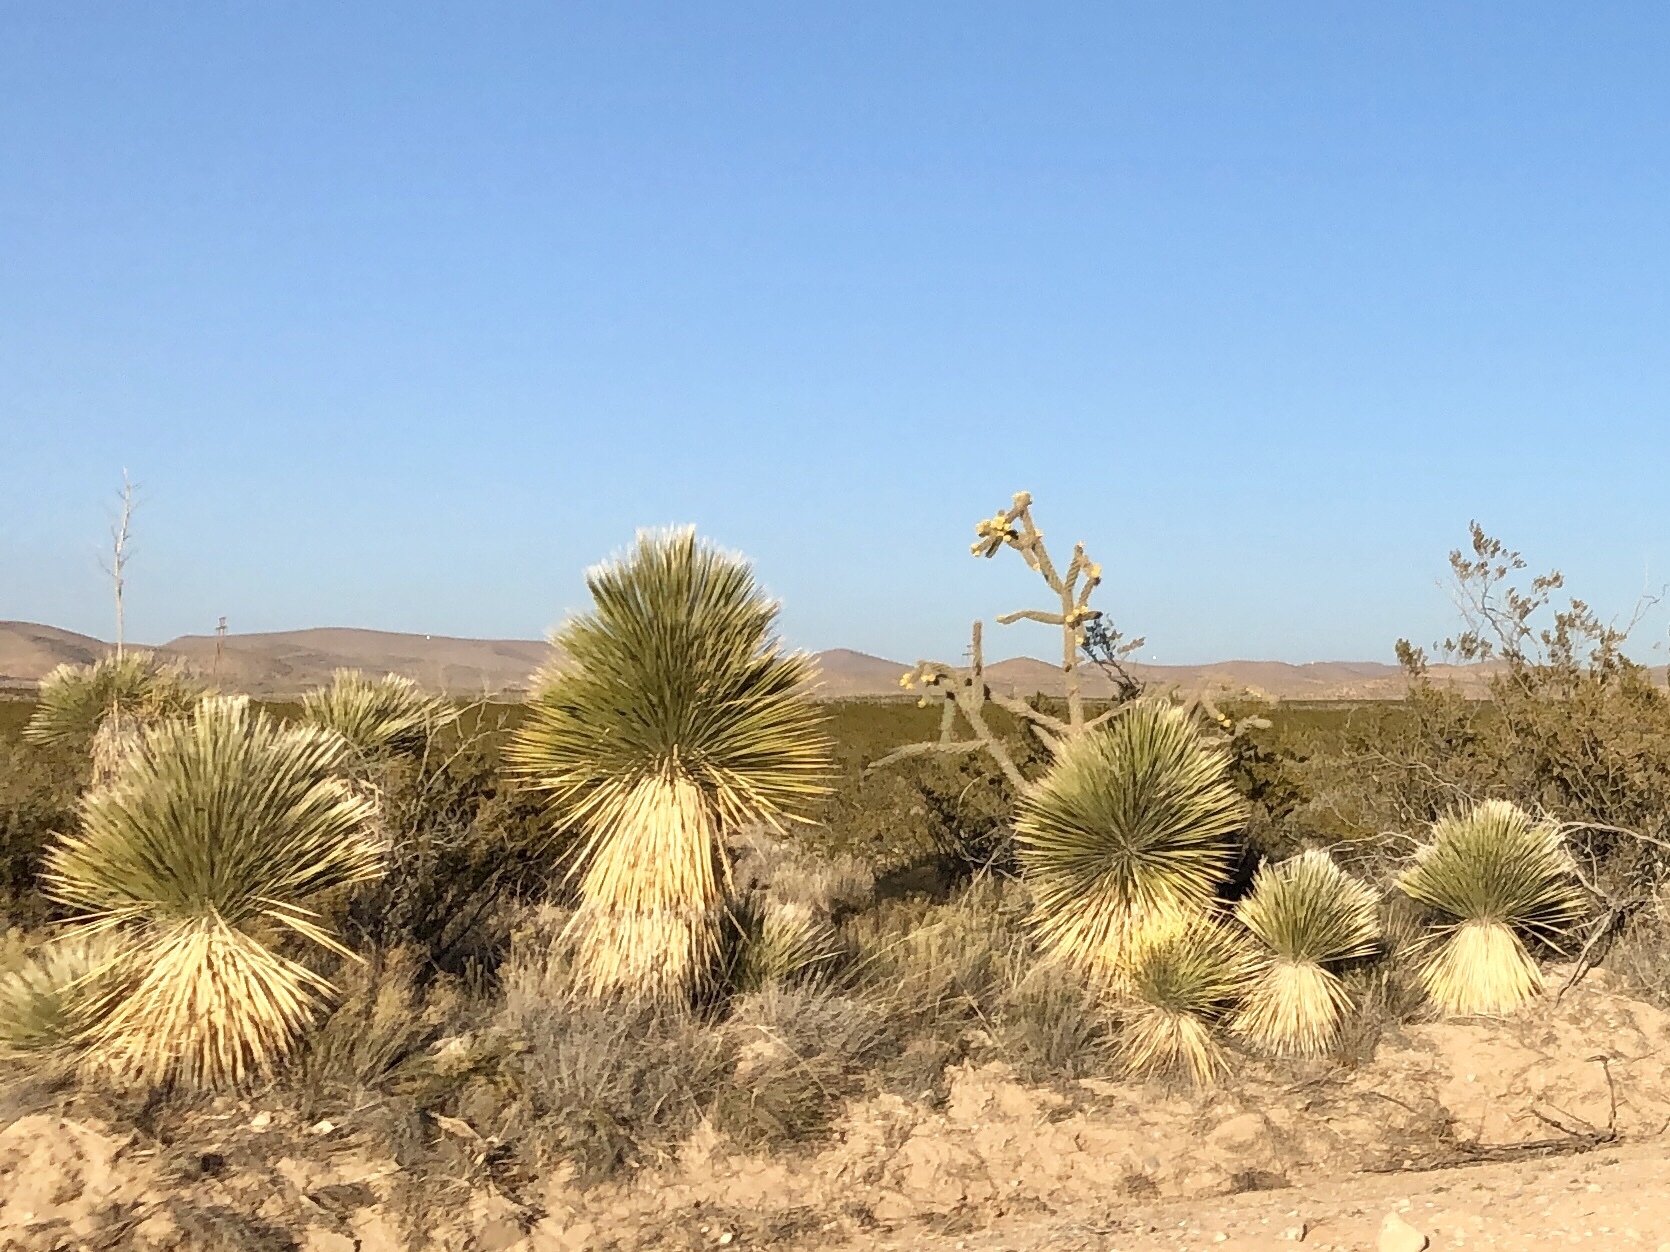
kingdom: Plantae
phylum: Tracheophyta
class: Liliopsida
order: Asparagales
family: Asparagaceae
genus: Yucca
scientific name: Yucca elata
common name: Palmella
